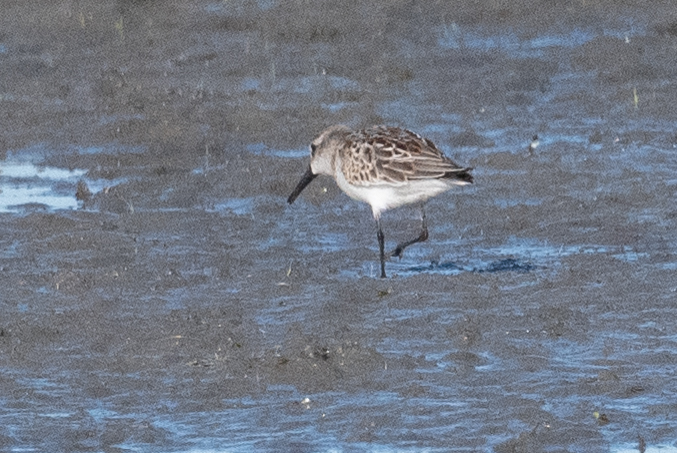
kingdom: Animalia
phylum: Chordata
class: Aves
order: Charadriiformes
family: Scolopacidae
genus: Calidris
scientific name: Calidris mauri
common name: Western sandpiper
